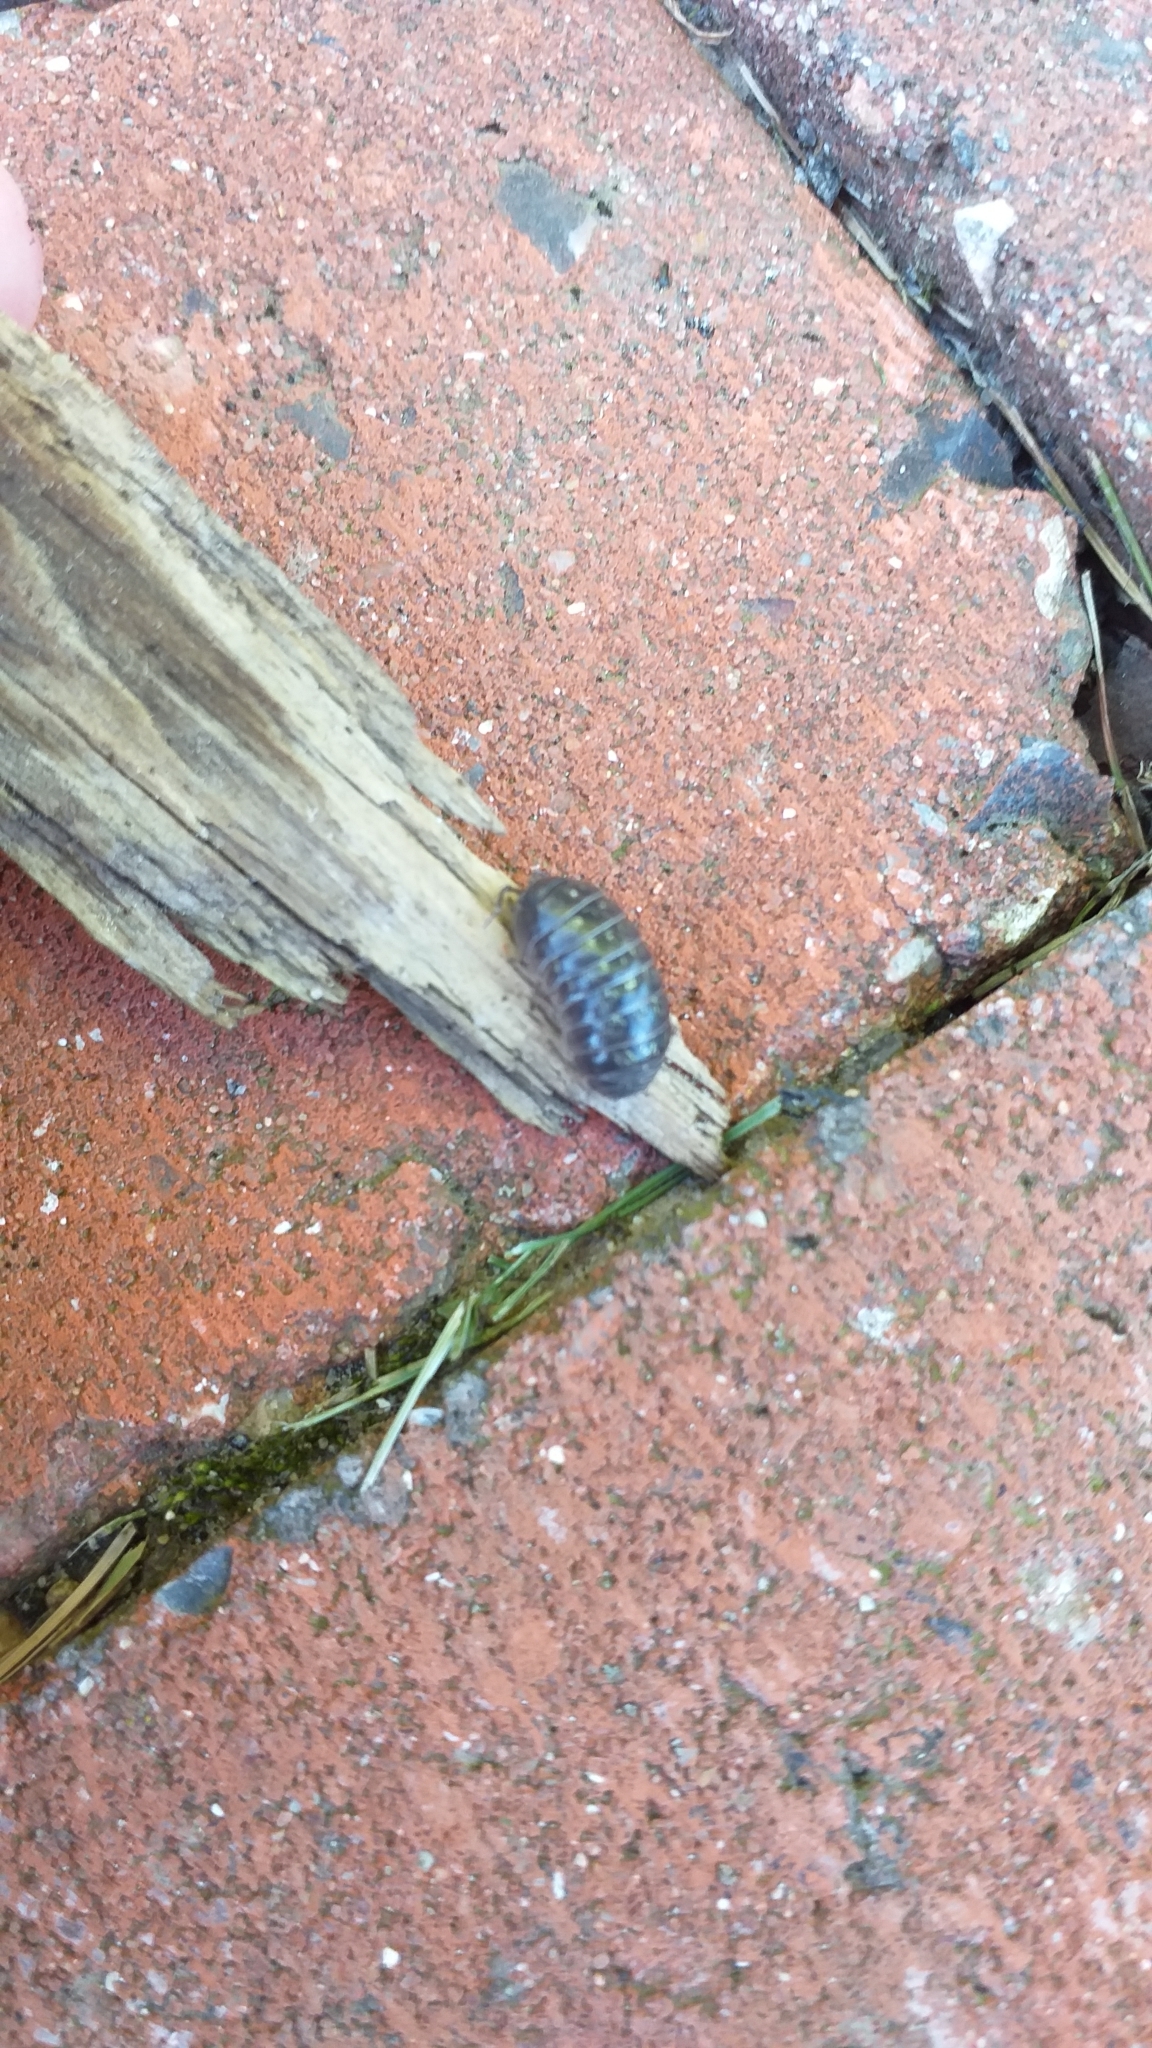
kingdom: Animalia
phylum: Arthropoda
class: Malacostraca
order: Isopoda
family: Armadillidiidae
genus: Armadillidium
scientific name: Armadillidium vulgare
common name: Common pill woodlouse
